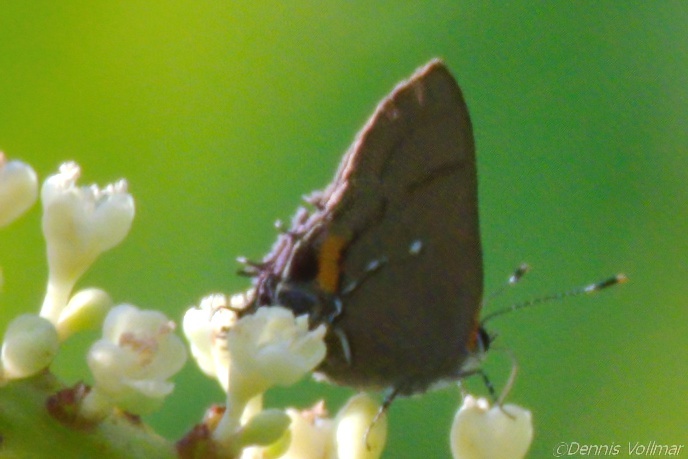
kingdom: Animalia
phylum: Arthropoda
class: Insecta
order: Lepidoptera
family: Lycaenidae
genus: Thecla
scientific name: Thecla angelia
